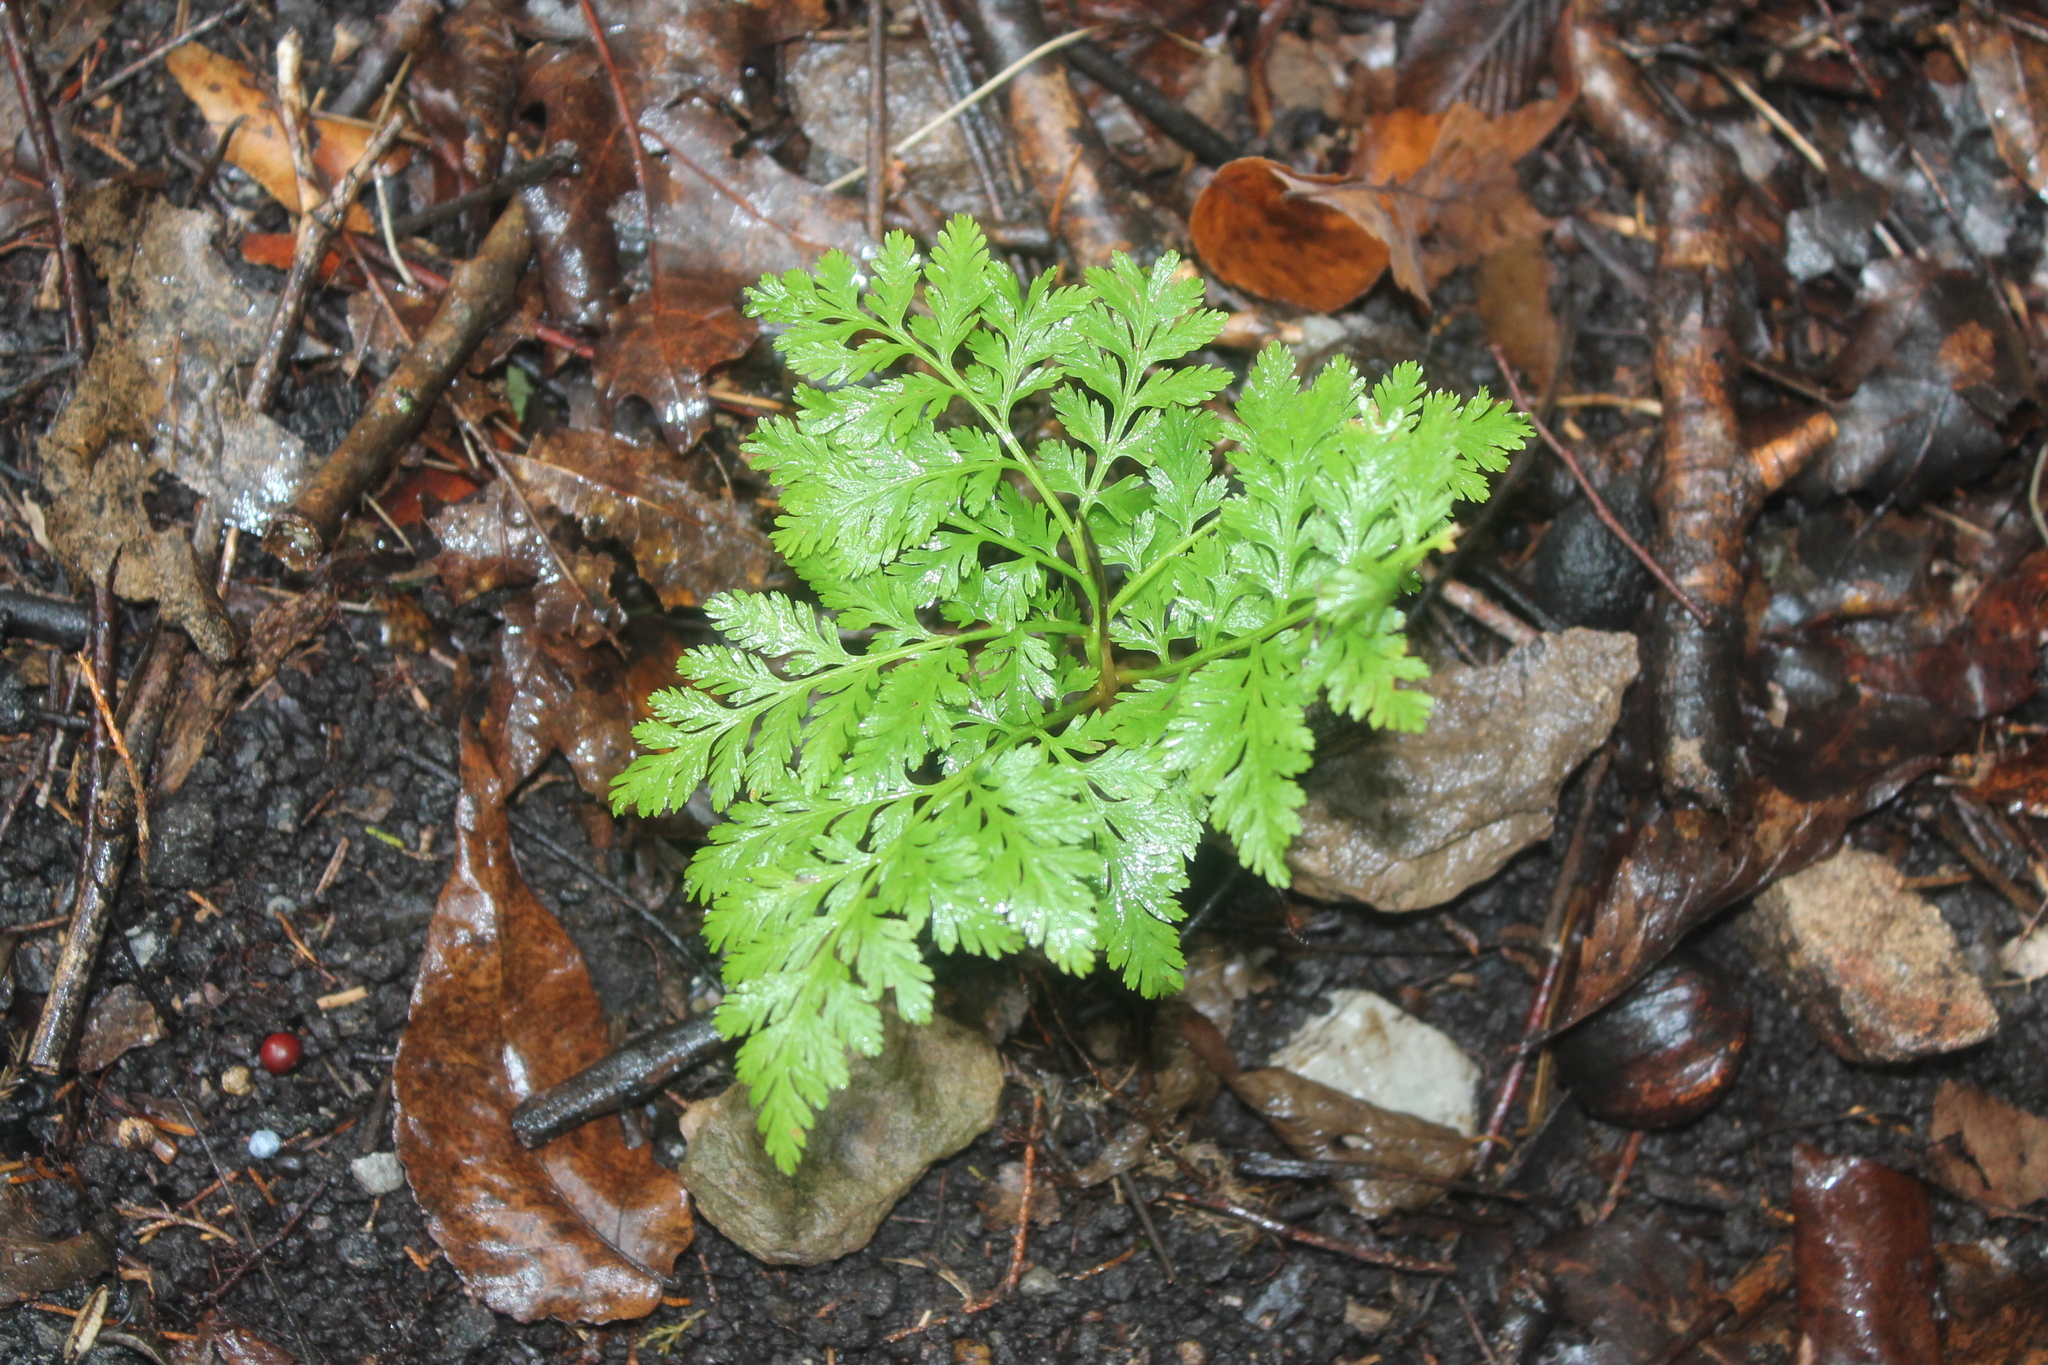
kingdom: Plantae
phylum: Tracheophyta
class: Polypodiopsida
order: Ophioglossales
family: Ophioglossaceae
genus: Botrypus
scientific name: Botrypus virginianus
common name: Common grapefern
